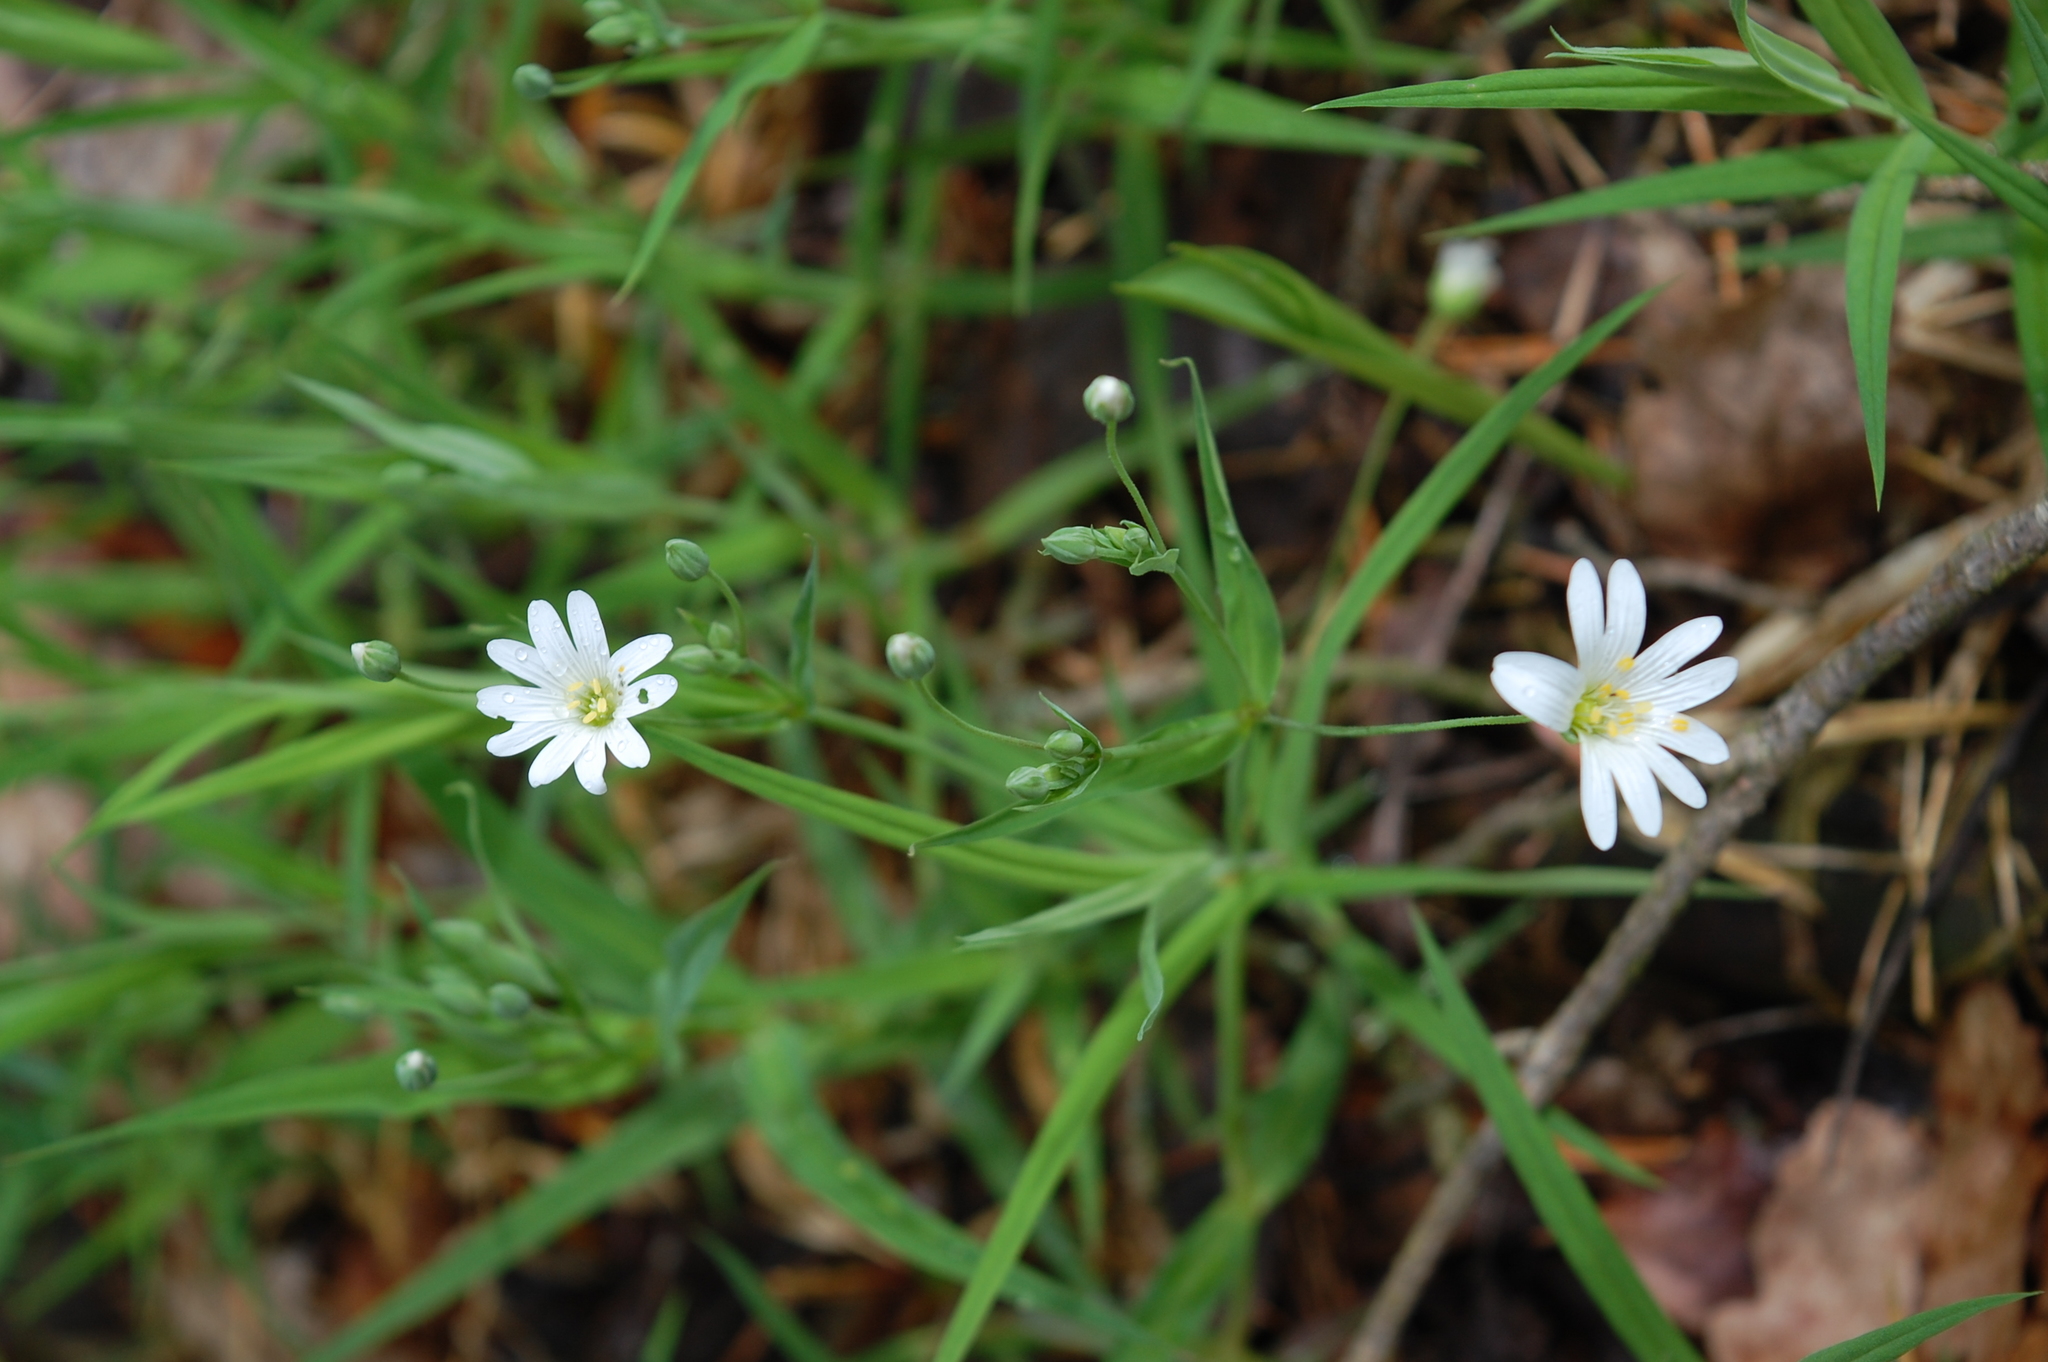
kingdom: Plantae
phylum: Tracheophyta
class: Magnoliopsida
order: Caryophyllales
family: Caryophyllaceae
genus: Rabelera
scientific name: Rabelera holostea
